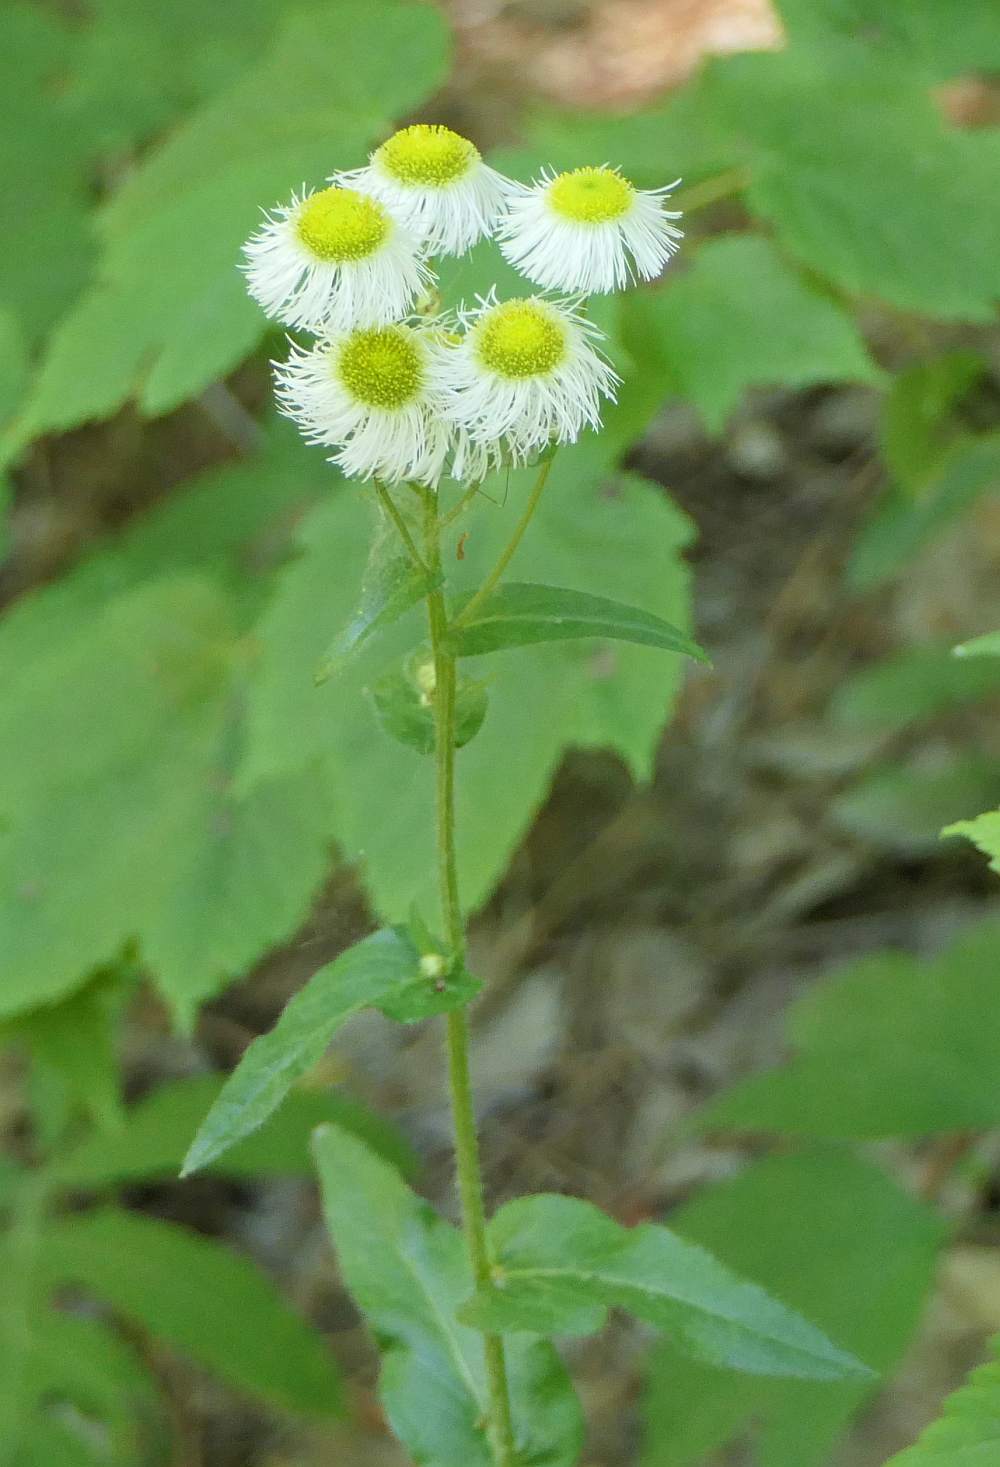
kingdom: Plantae
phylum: Tracheophyta
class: Magnoliopsida
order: Asterales
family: Asteraceae
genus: Erigeron
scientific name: Erigeron philadelphicus
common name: Robin's-plantain
